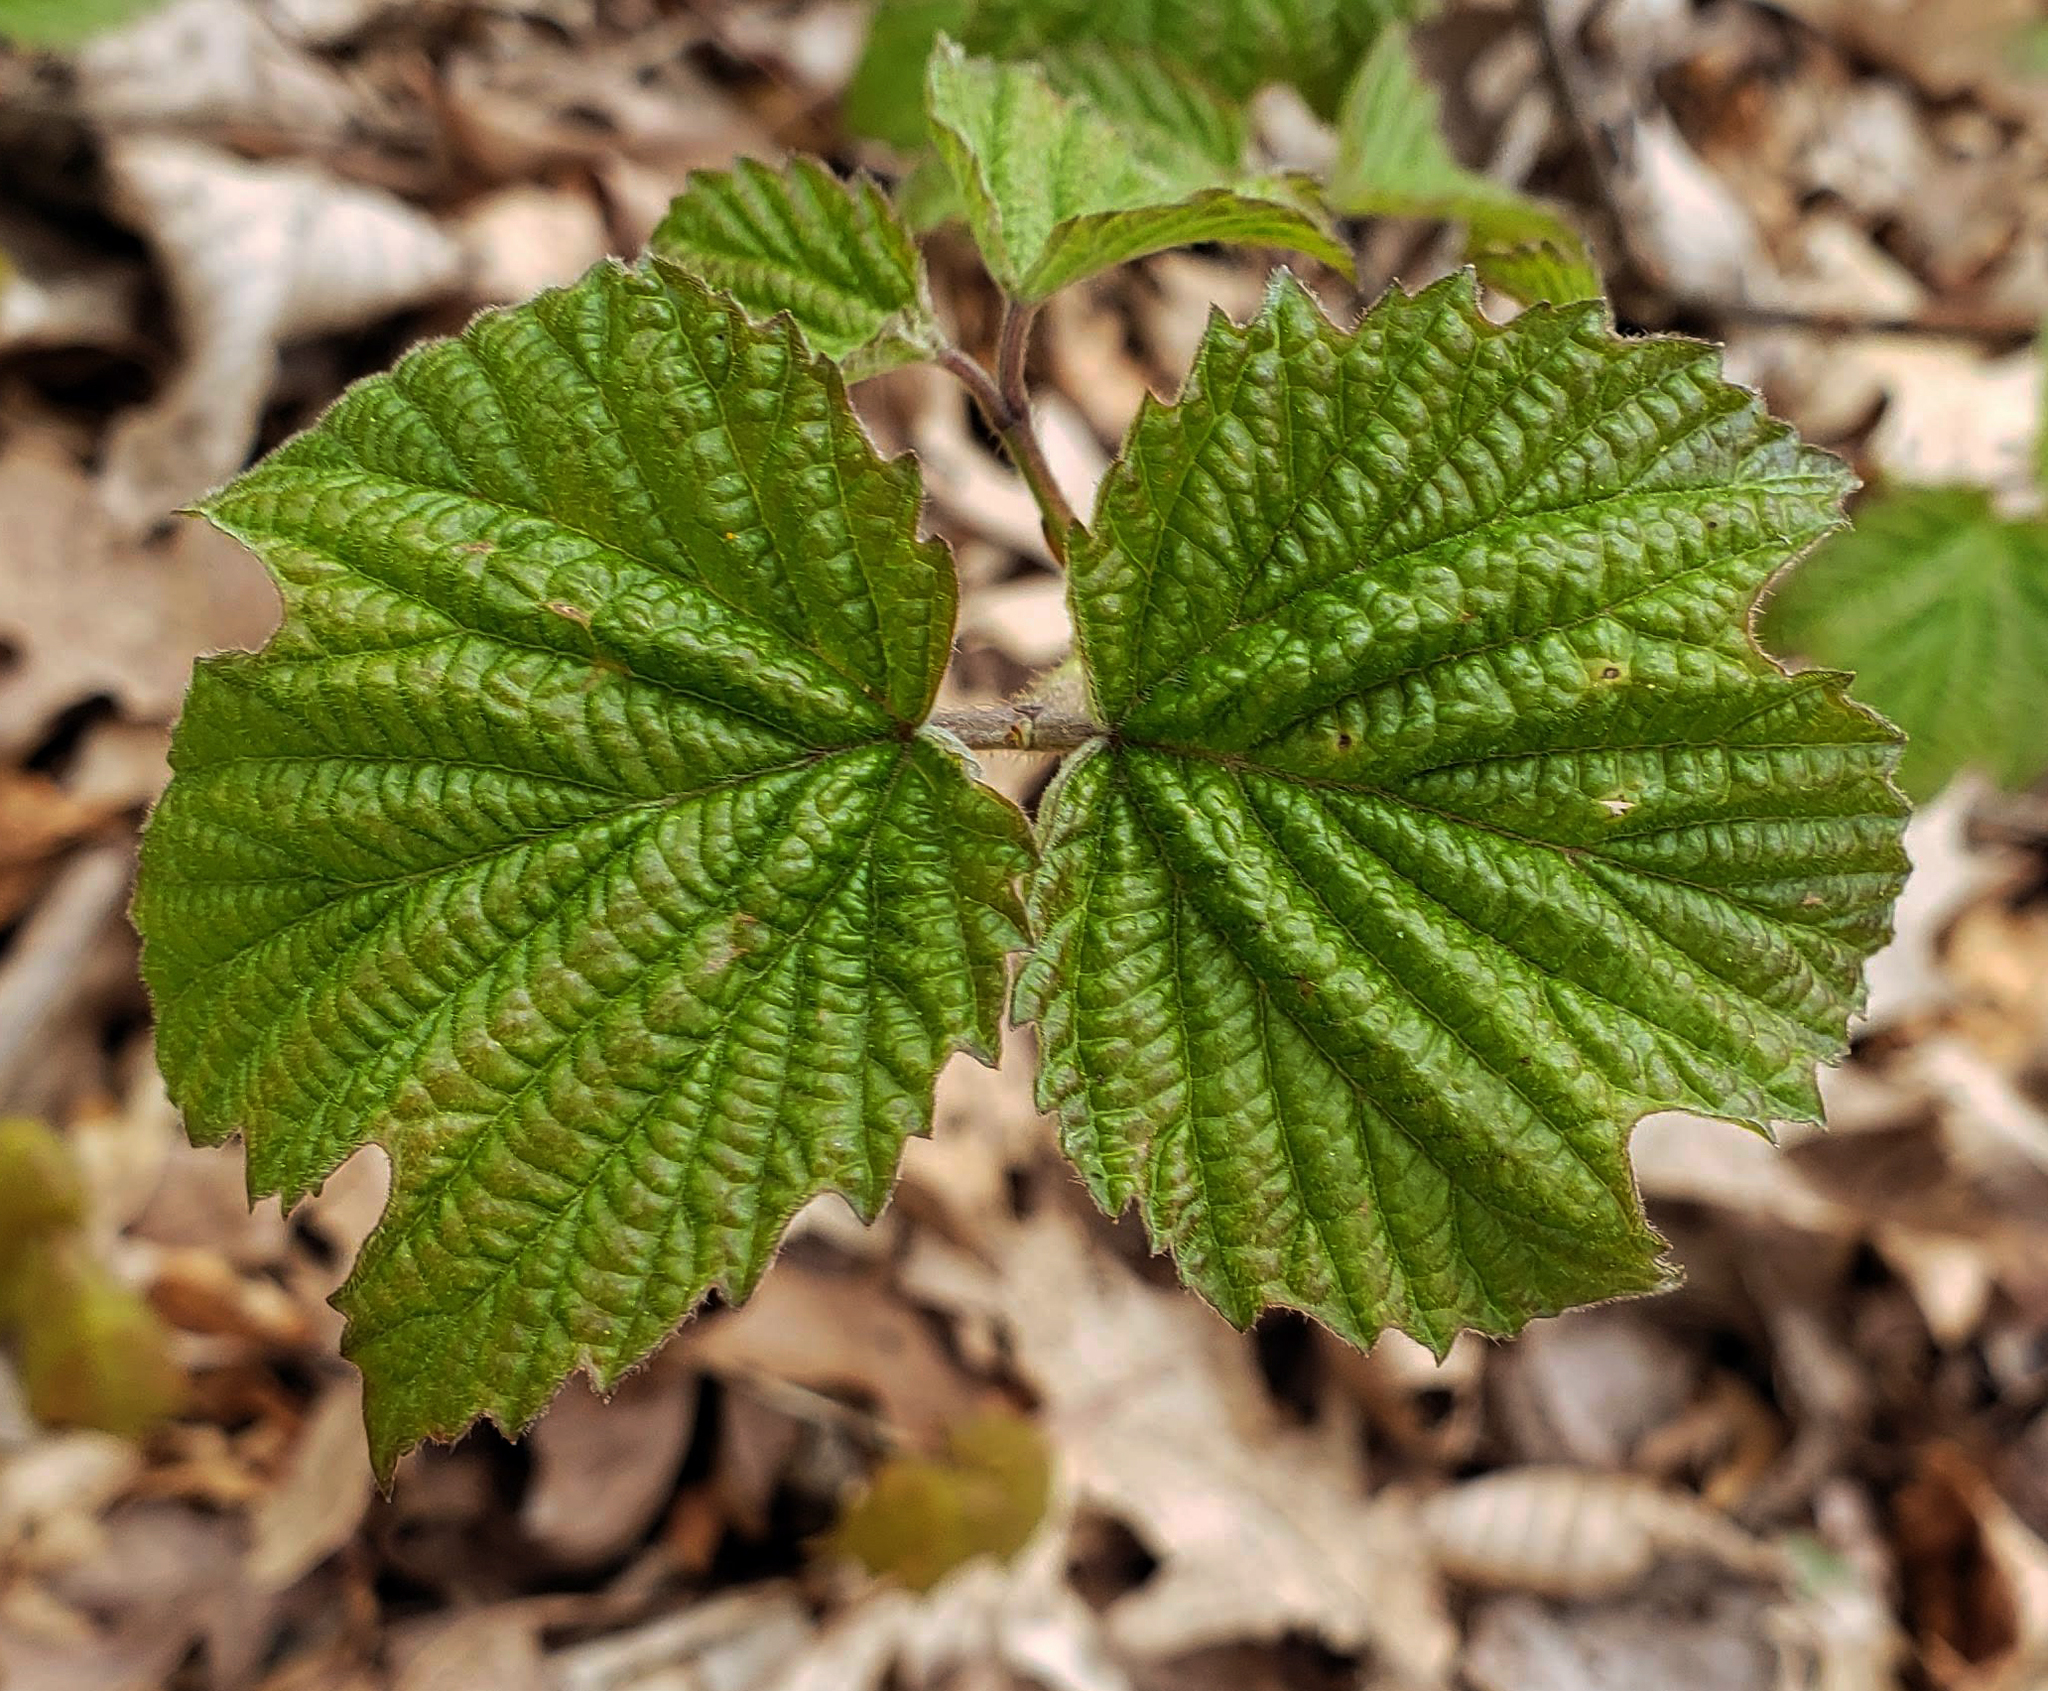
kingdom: Plantae
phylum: Tracheophyta
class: Magnoliopsida
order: Dipsacales
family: Viburnaceae
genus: Viburnum
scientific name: Viburnum acerifolium
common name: Dockmackie
